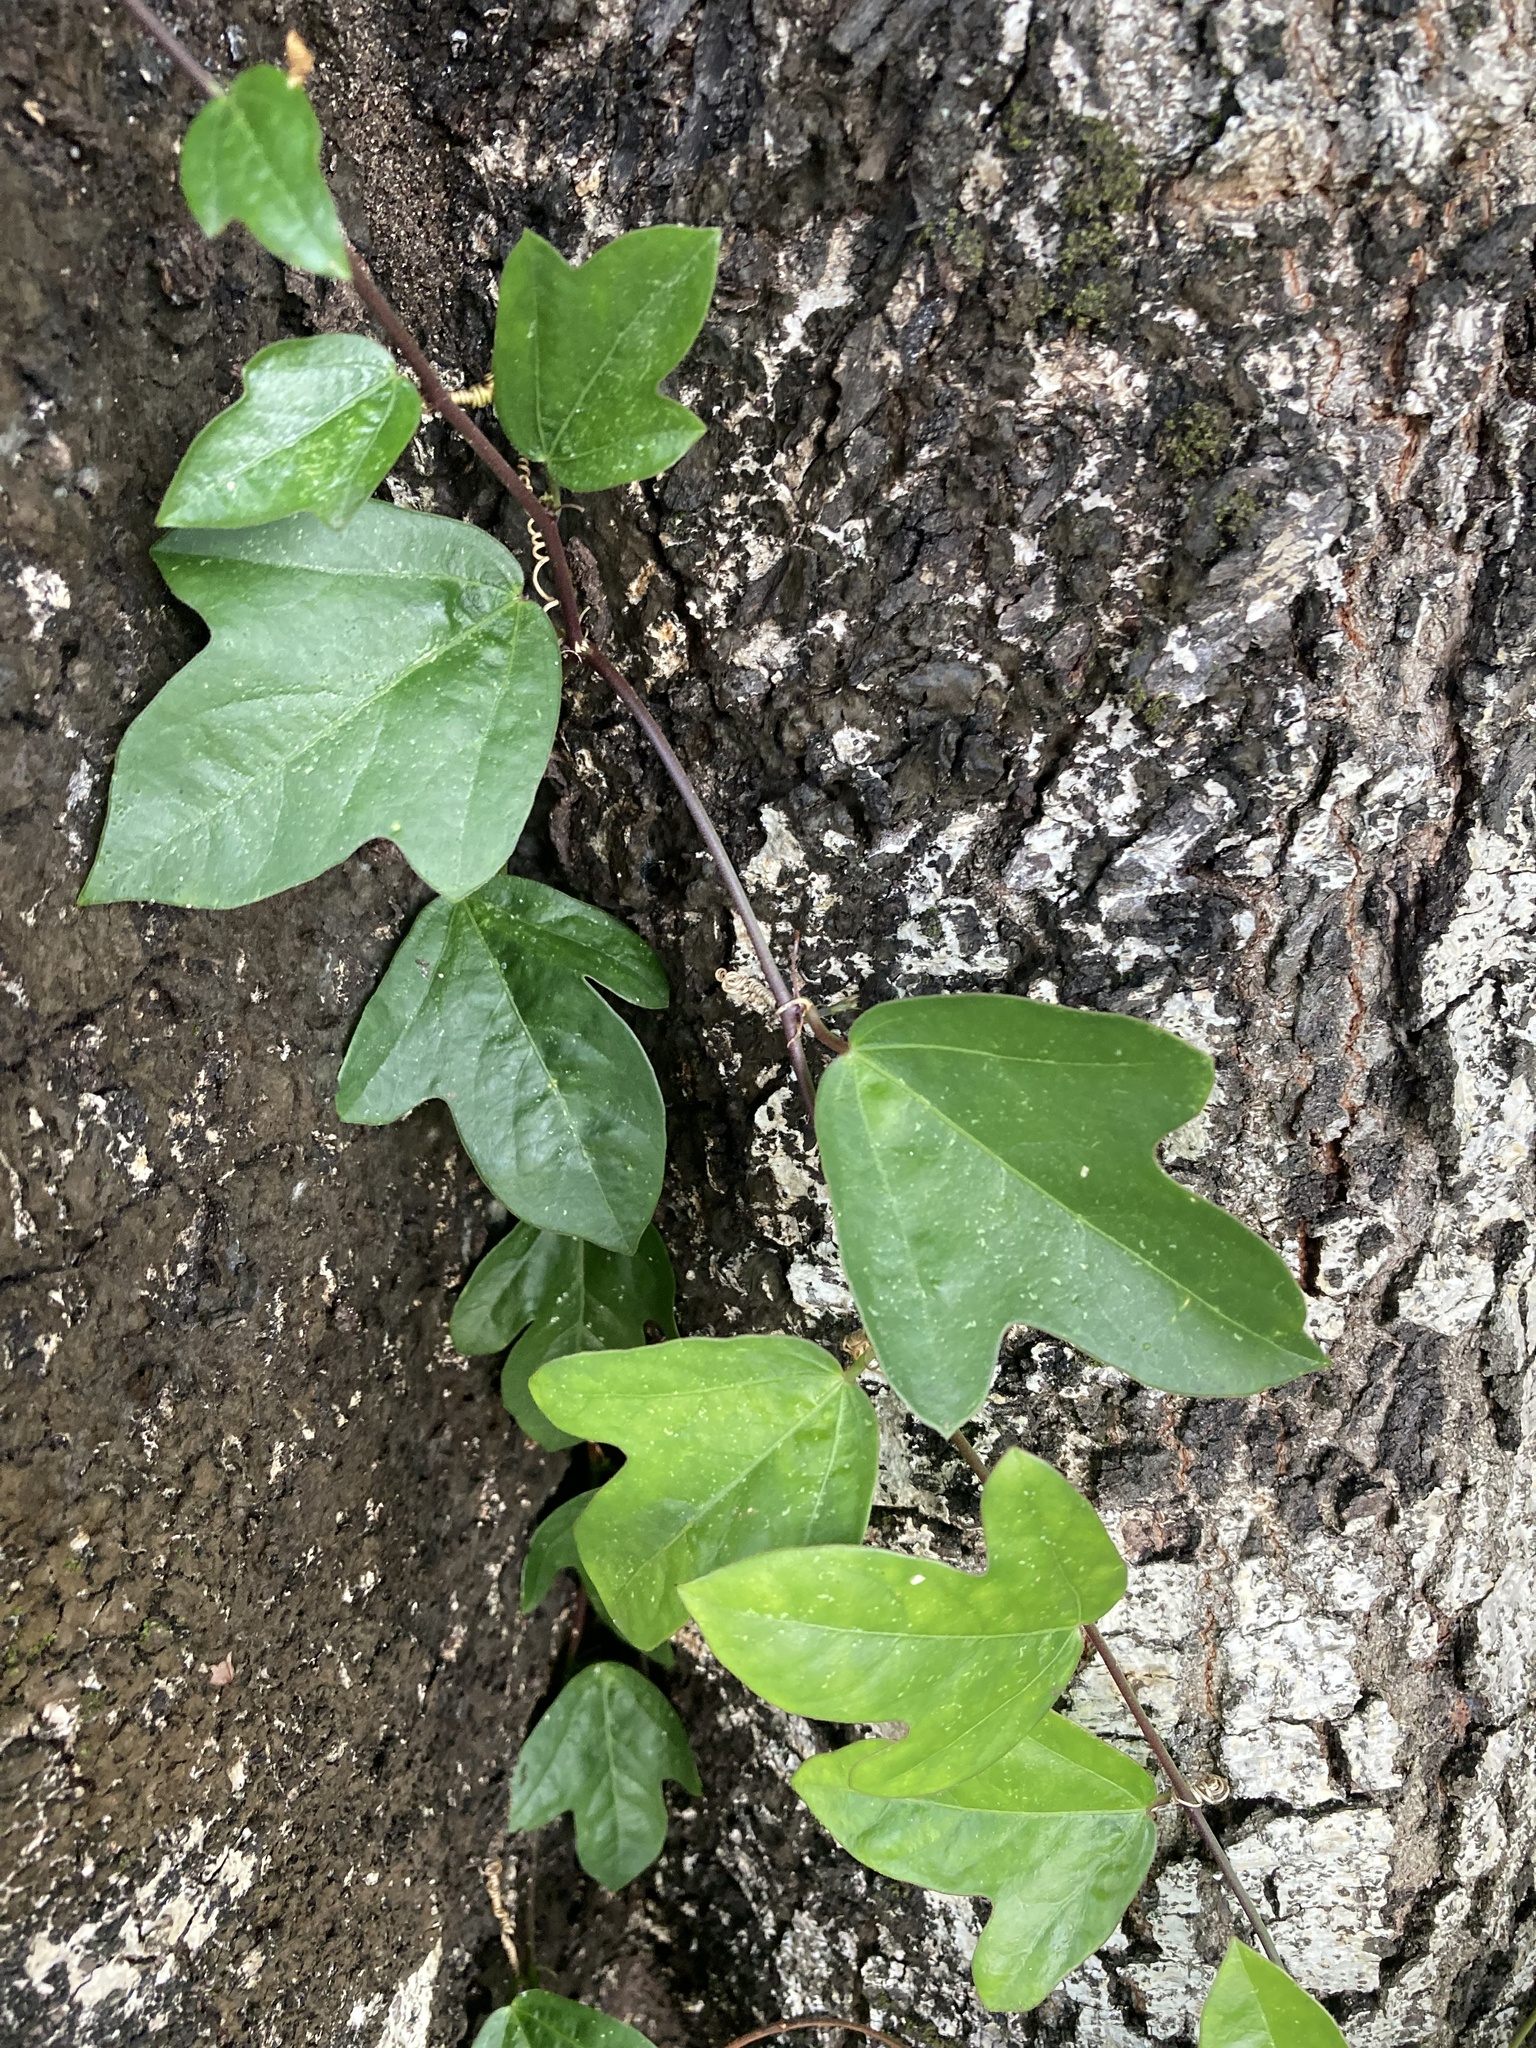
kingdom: Plantae
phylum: Tracheophyta
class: Magnoliopsida
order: Malpighiales
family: Passifloraceae
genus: Passiflora
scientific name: Passiflora pallida
